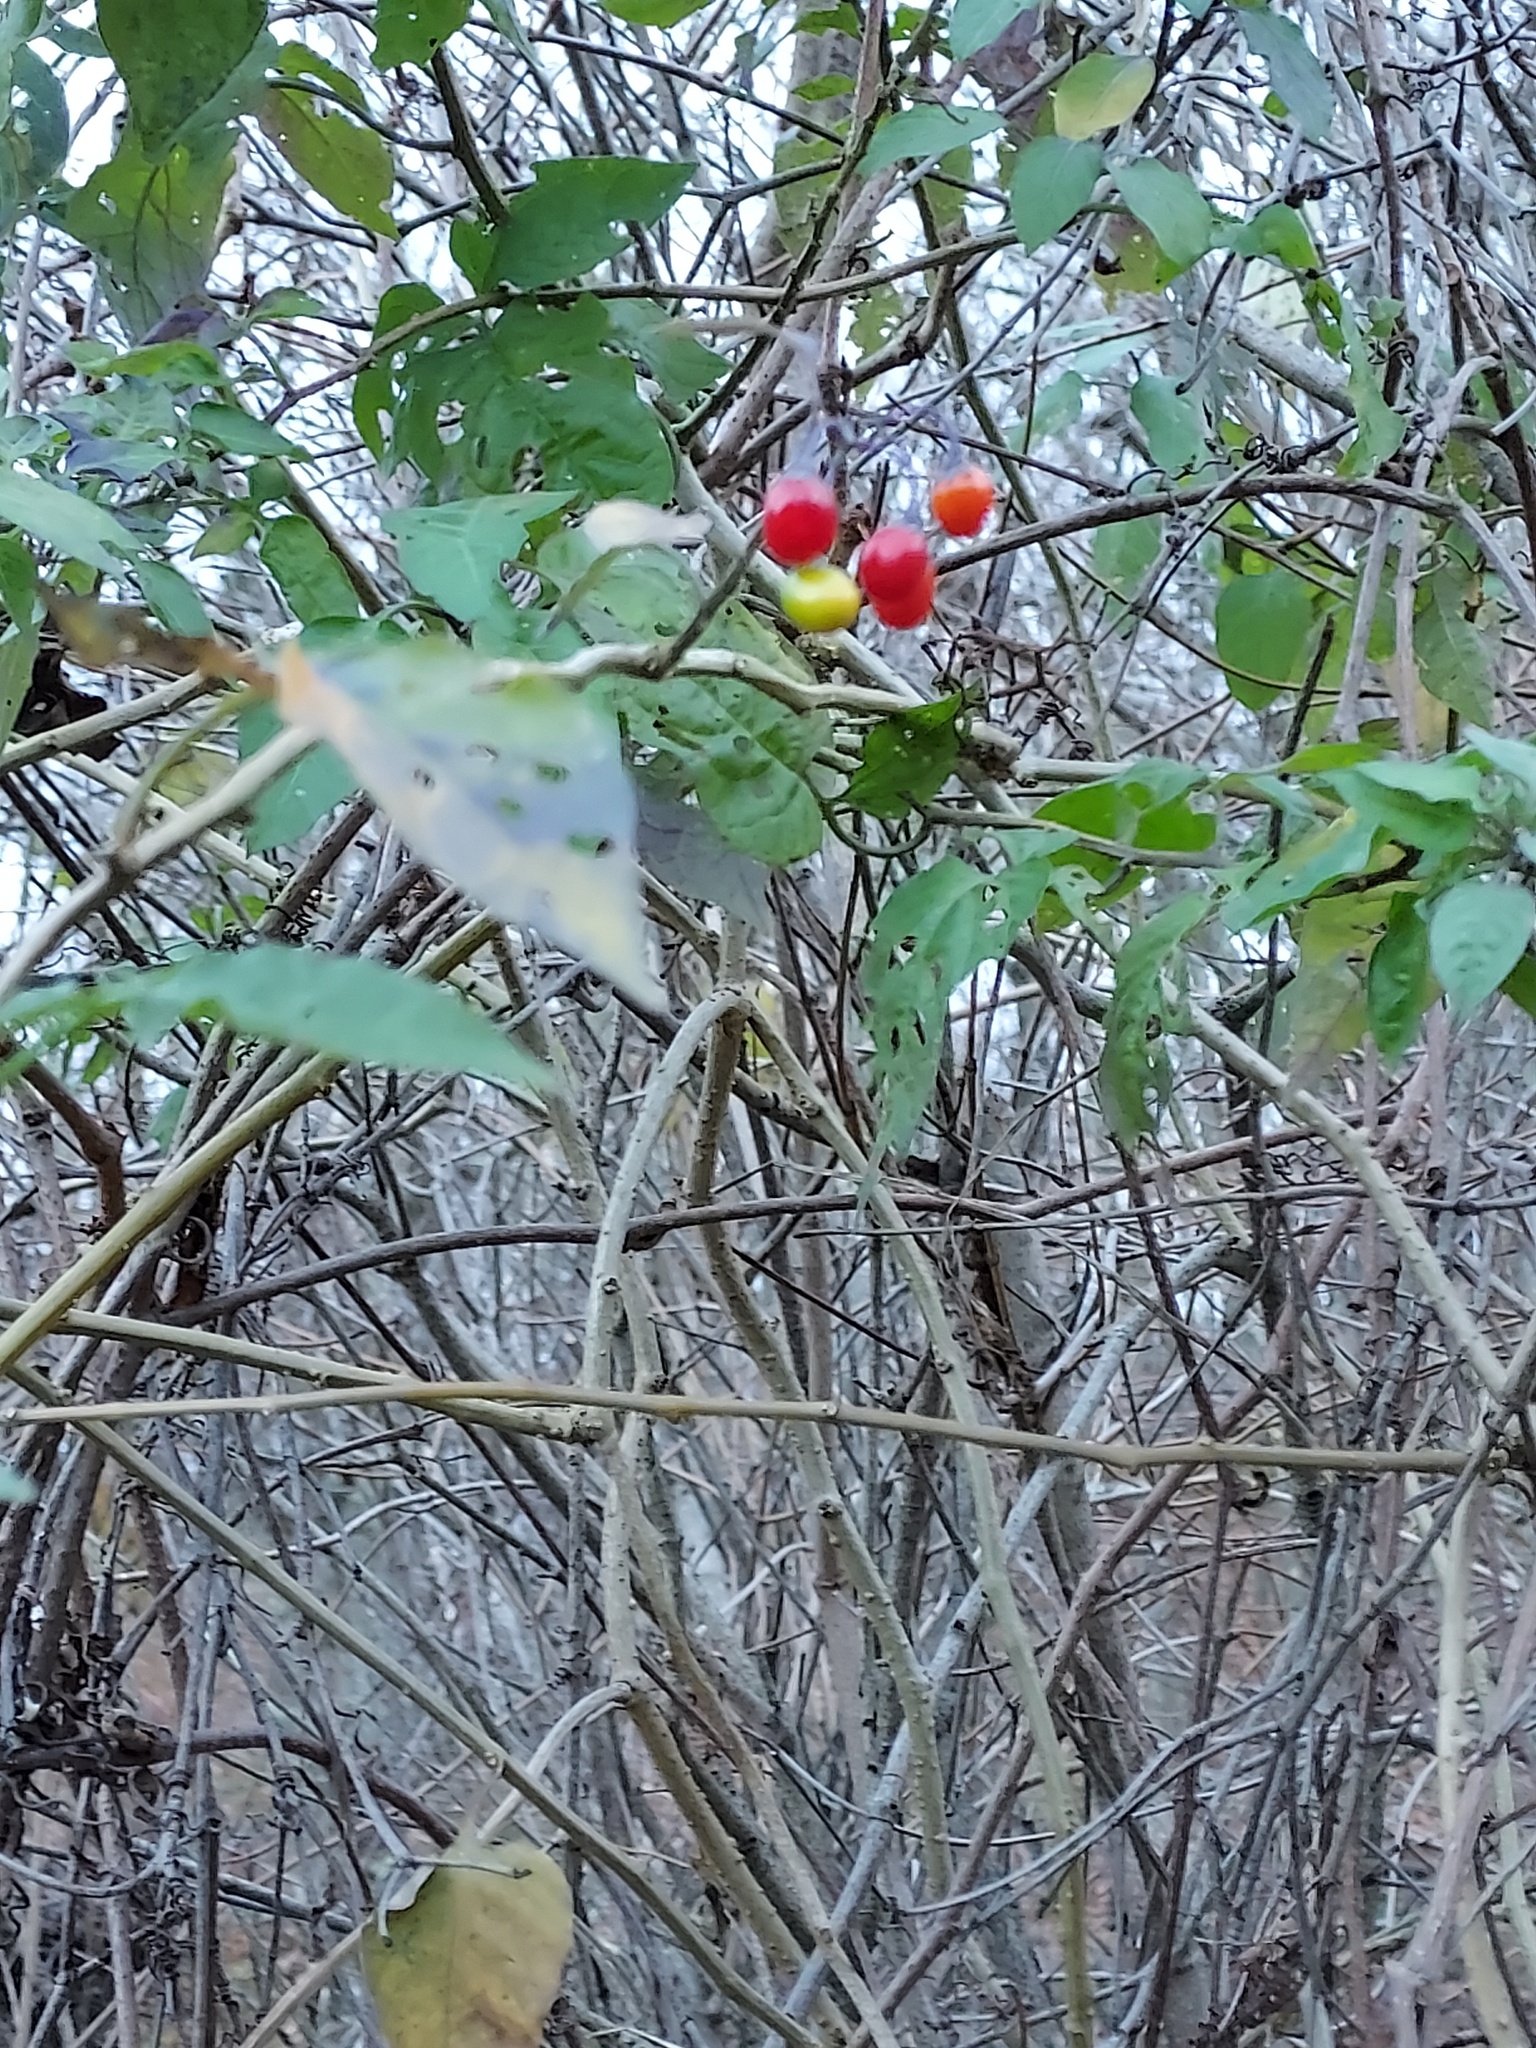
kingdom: Plantae
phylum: Tracheophyta
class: Magnoliopsida
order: Solanales
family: Solanaceae
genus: Solanum
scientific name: Solanum dulcamara
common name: Climbing nightshade
